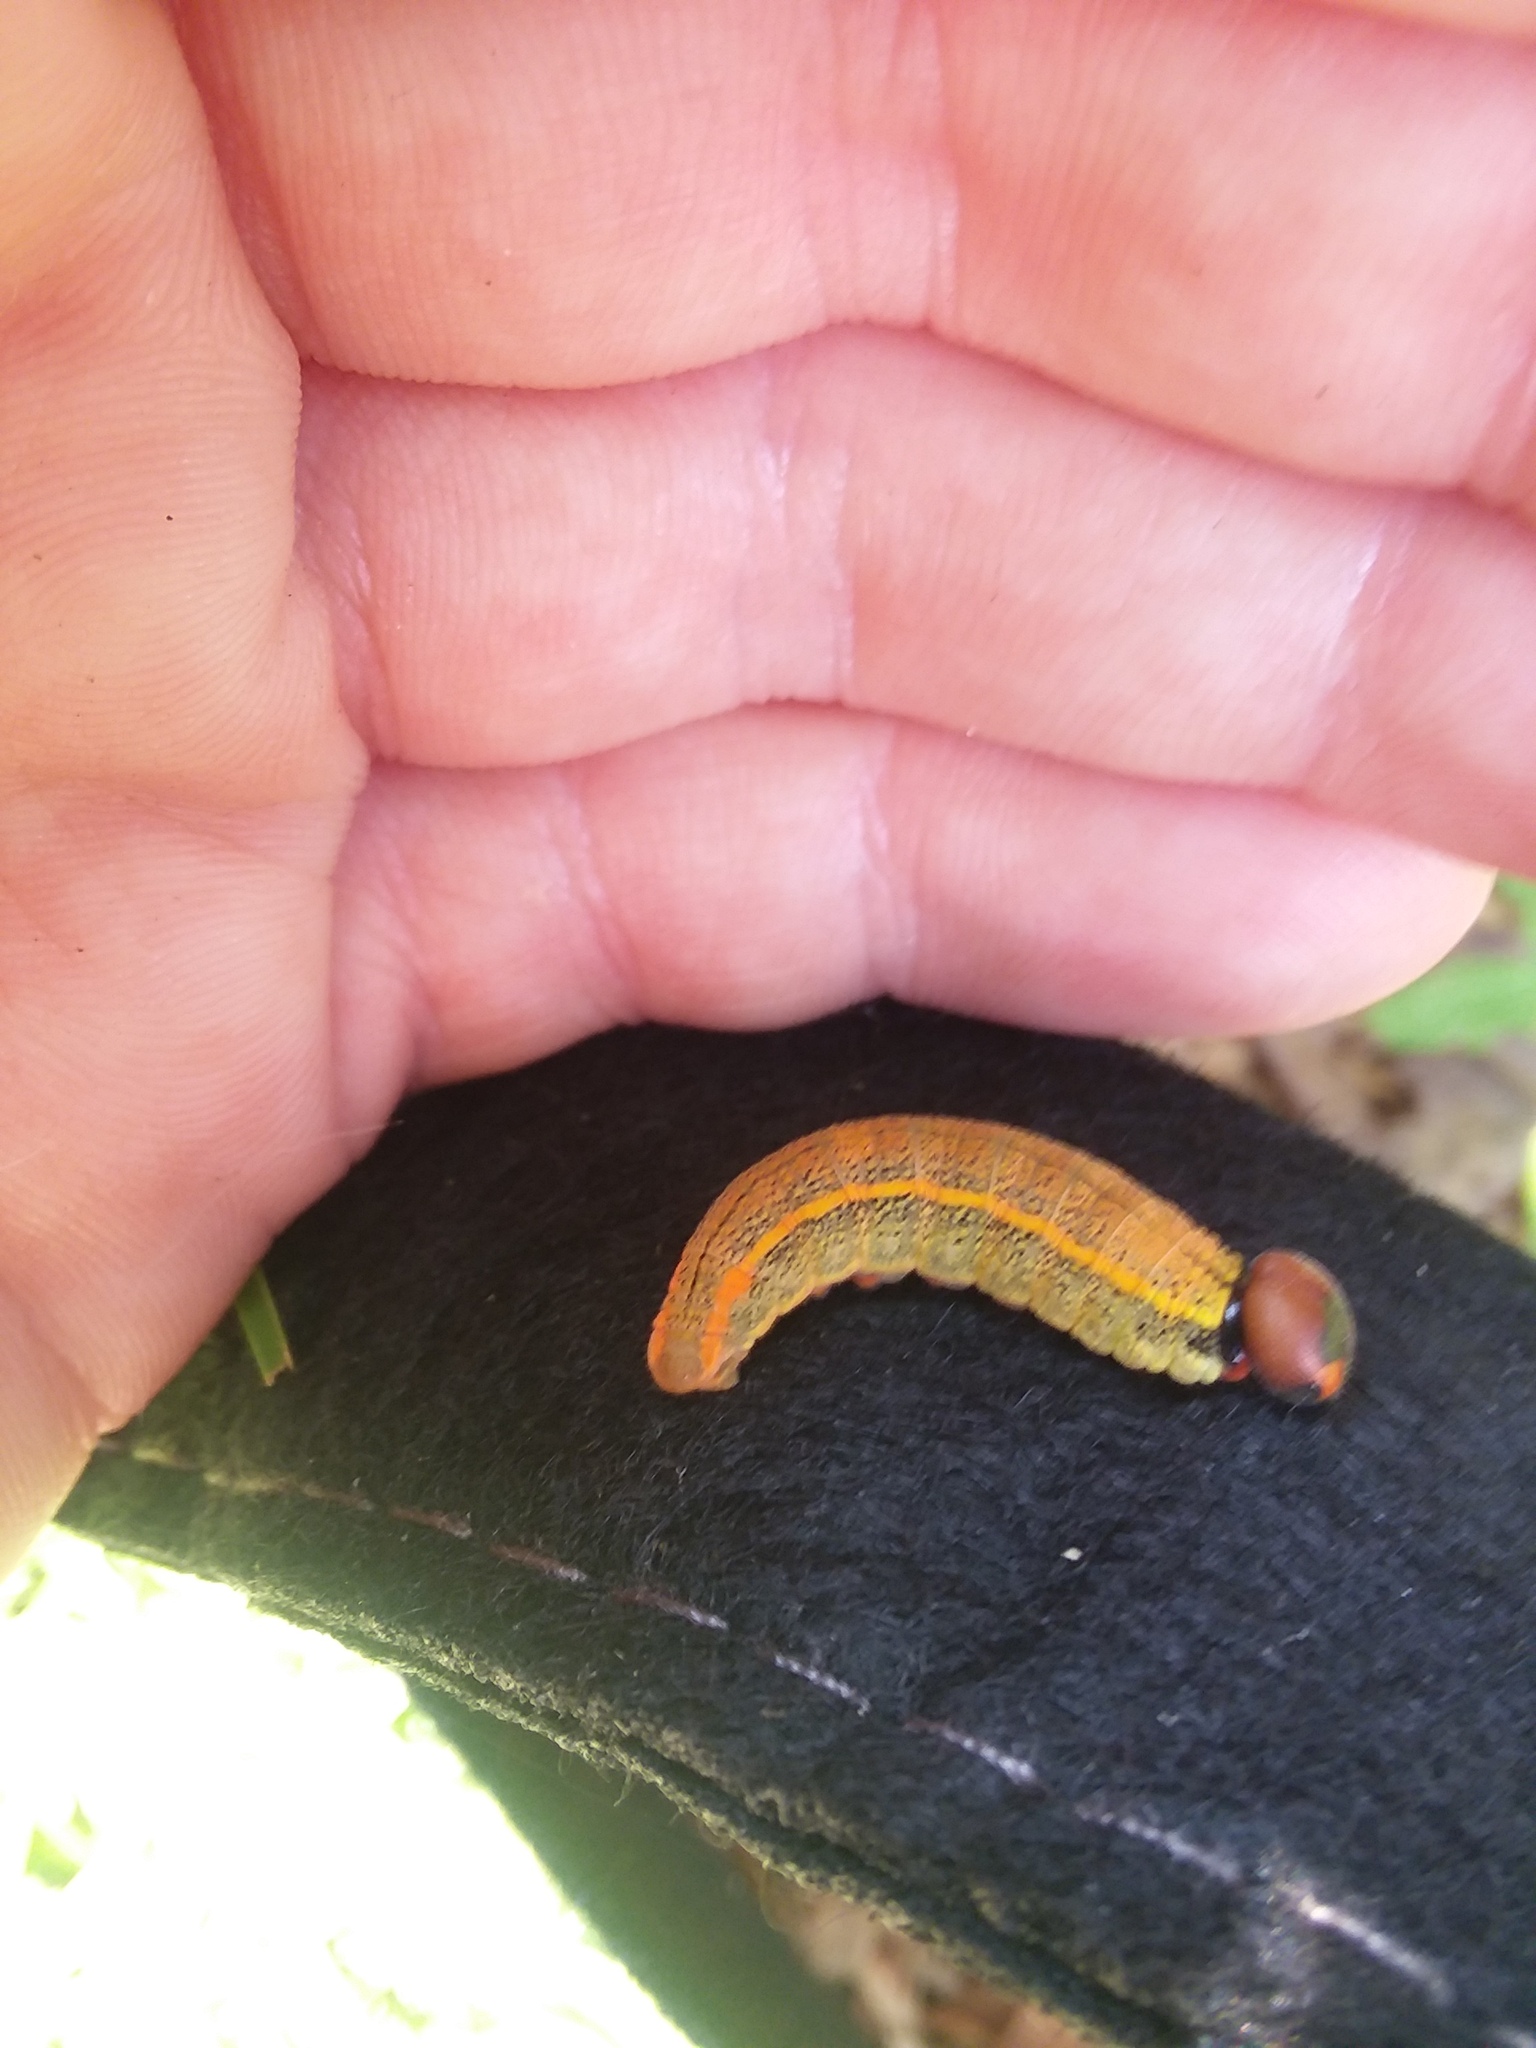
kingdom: Animalia
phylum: Arthropoda
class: Insecta
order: Lepidoptera
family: Hesperiidae
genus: Urbanus
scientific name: Urbanus proteus
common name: Long-tailed skipper
